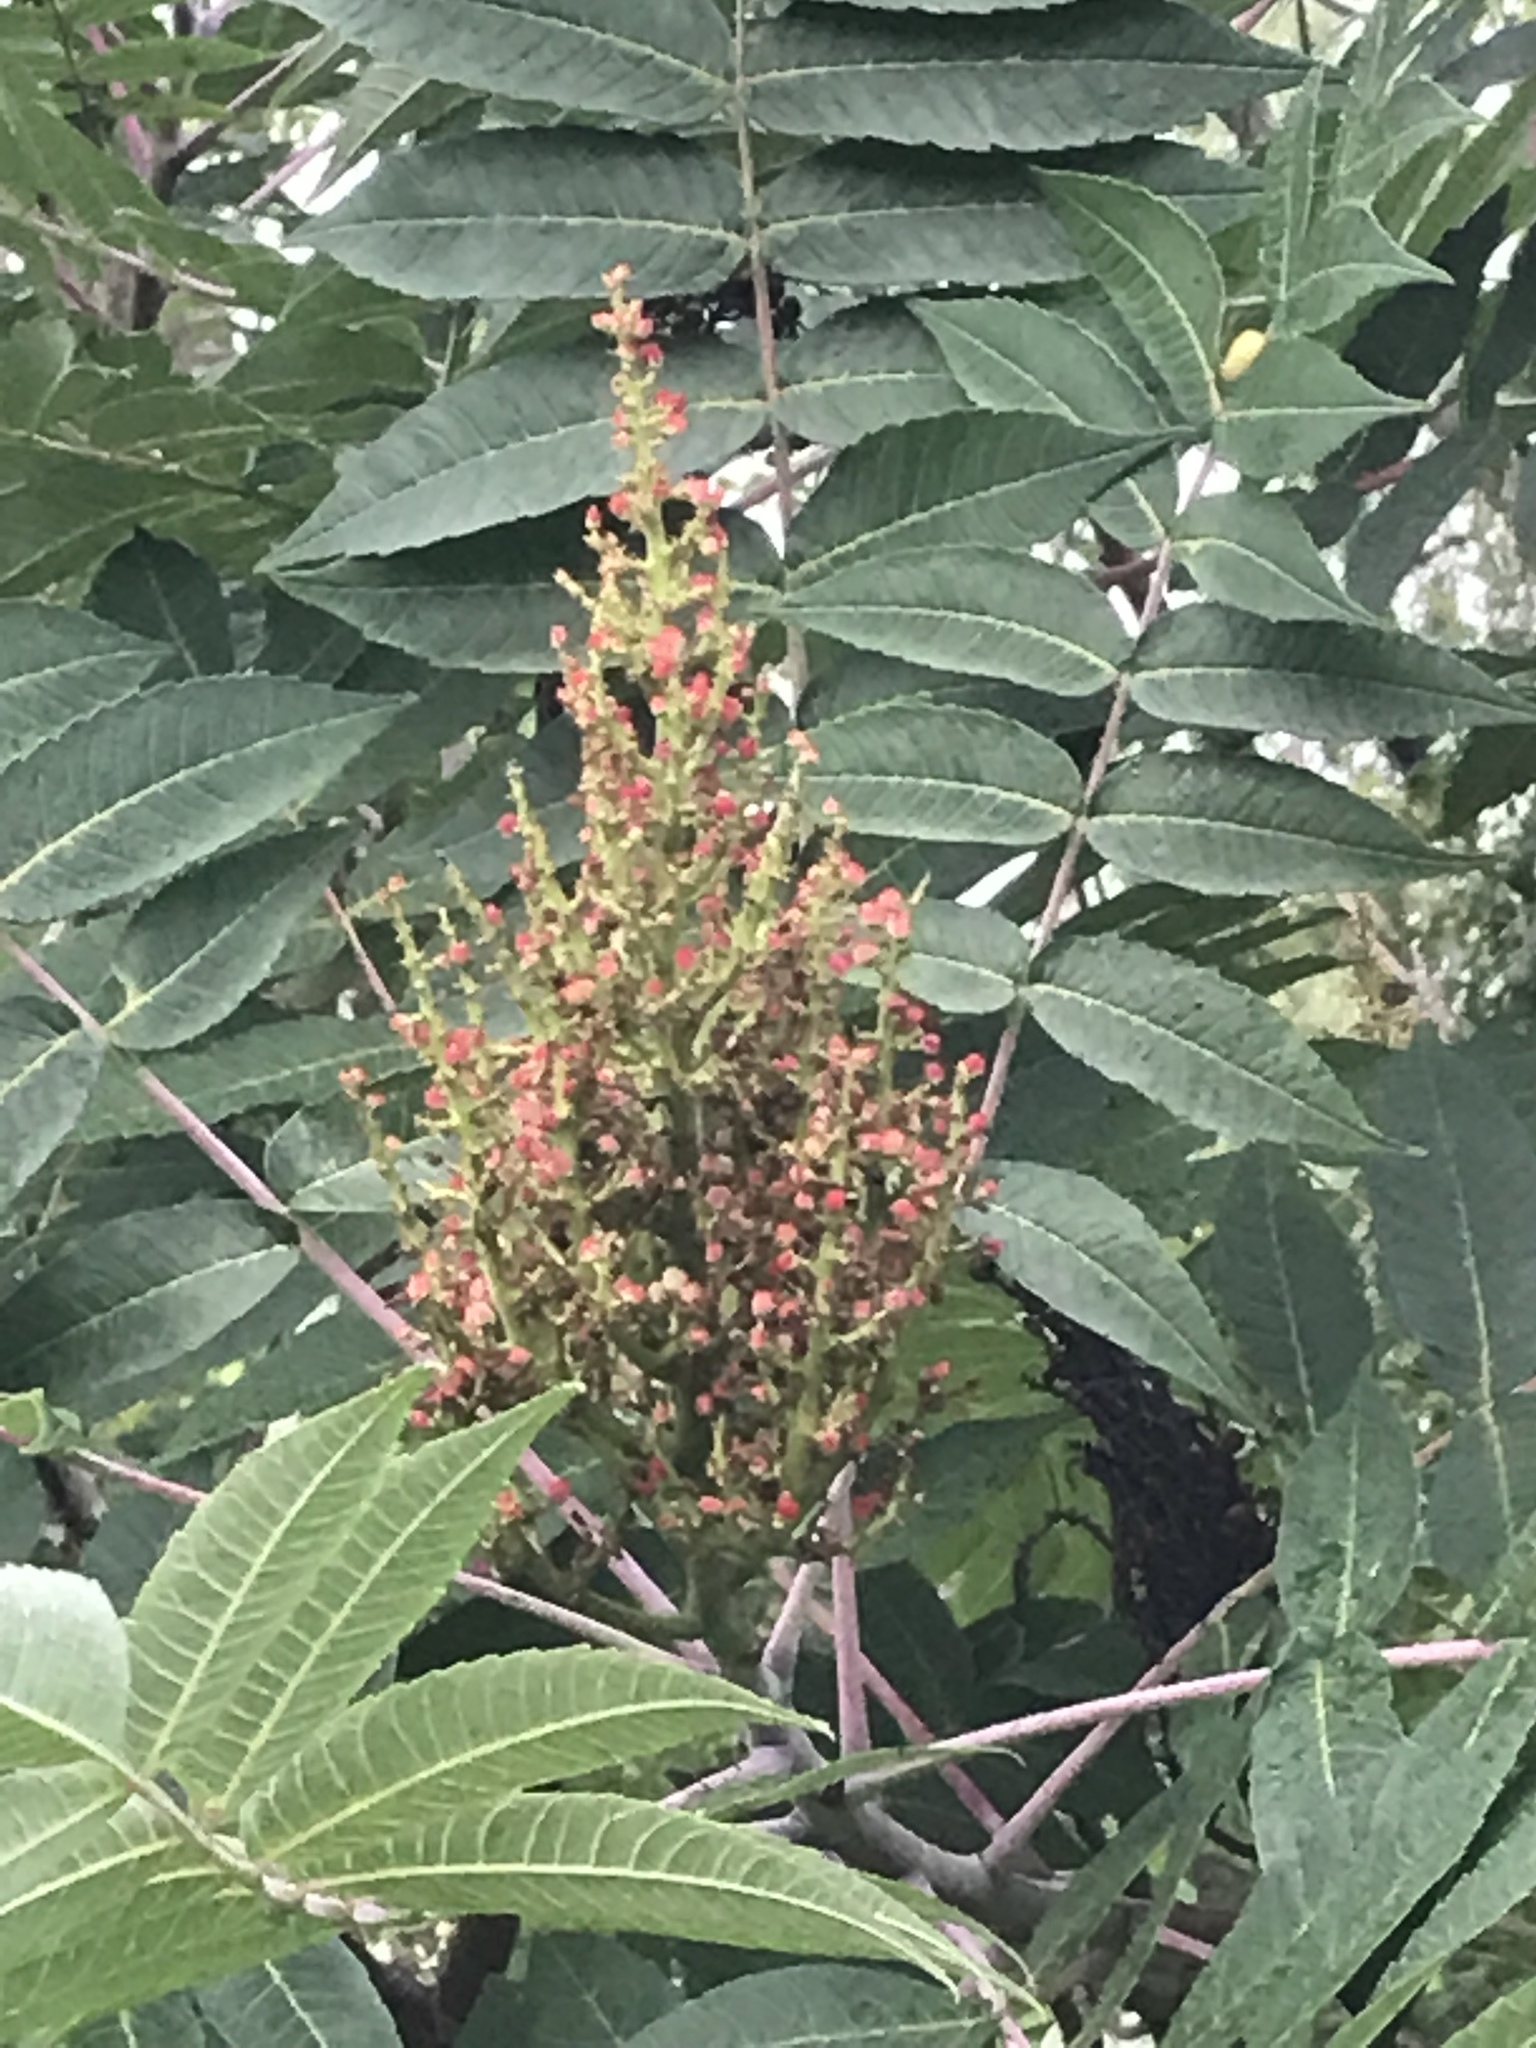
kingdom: Plantae
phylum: Tracheophyta
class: Magnoliopsida
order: Sapindales
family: Anacardiaceae
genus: Rhus
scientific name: Rhus glabra
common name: Scarlet sumac
